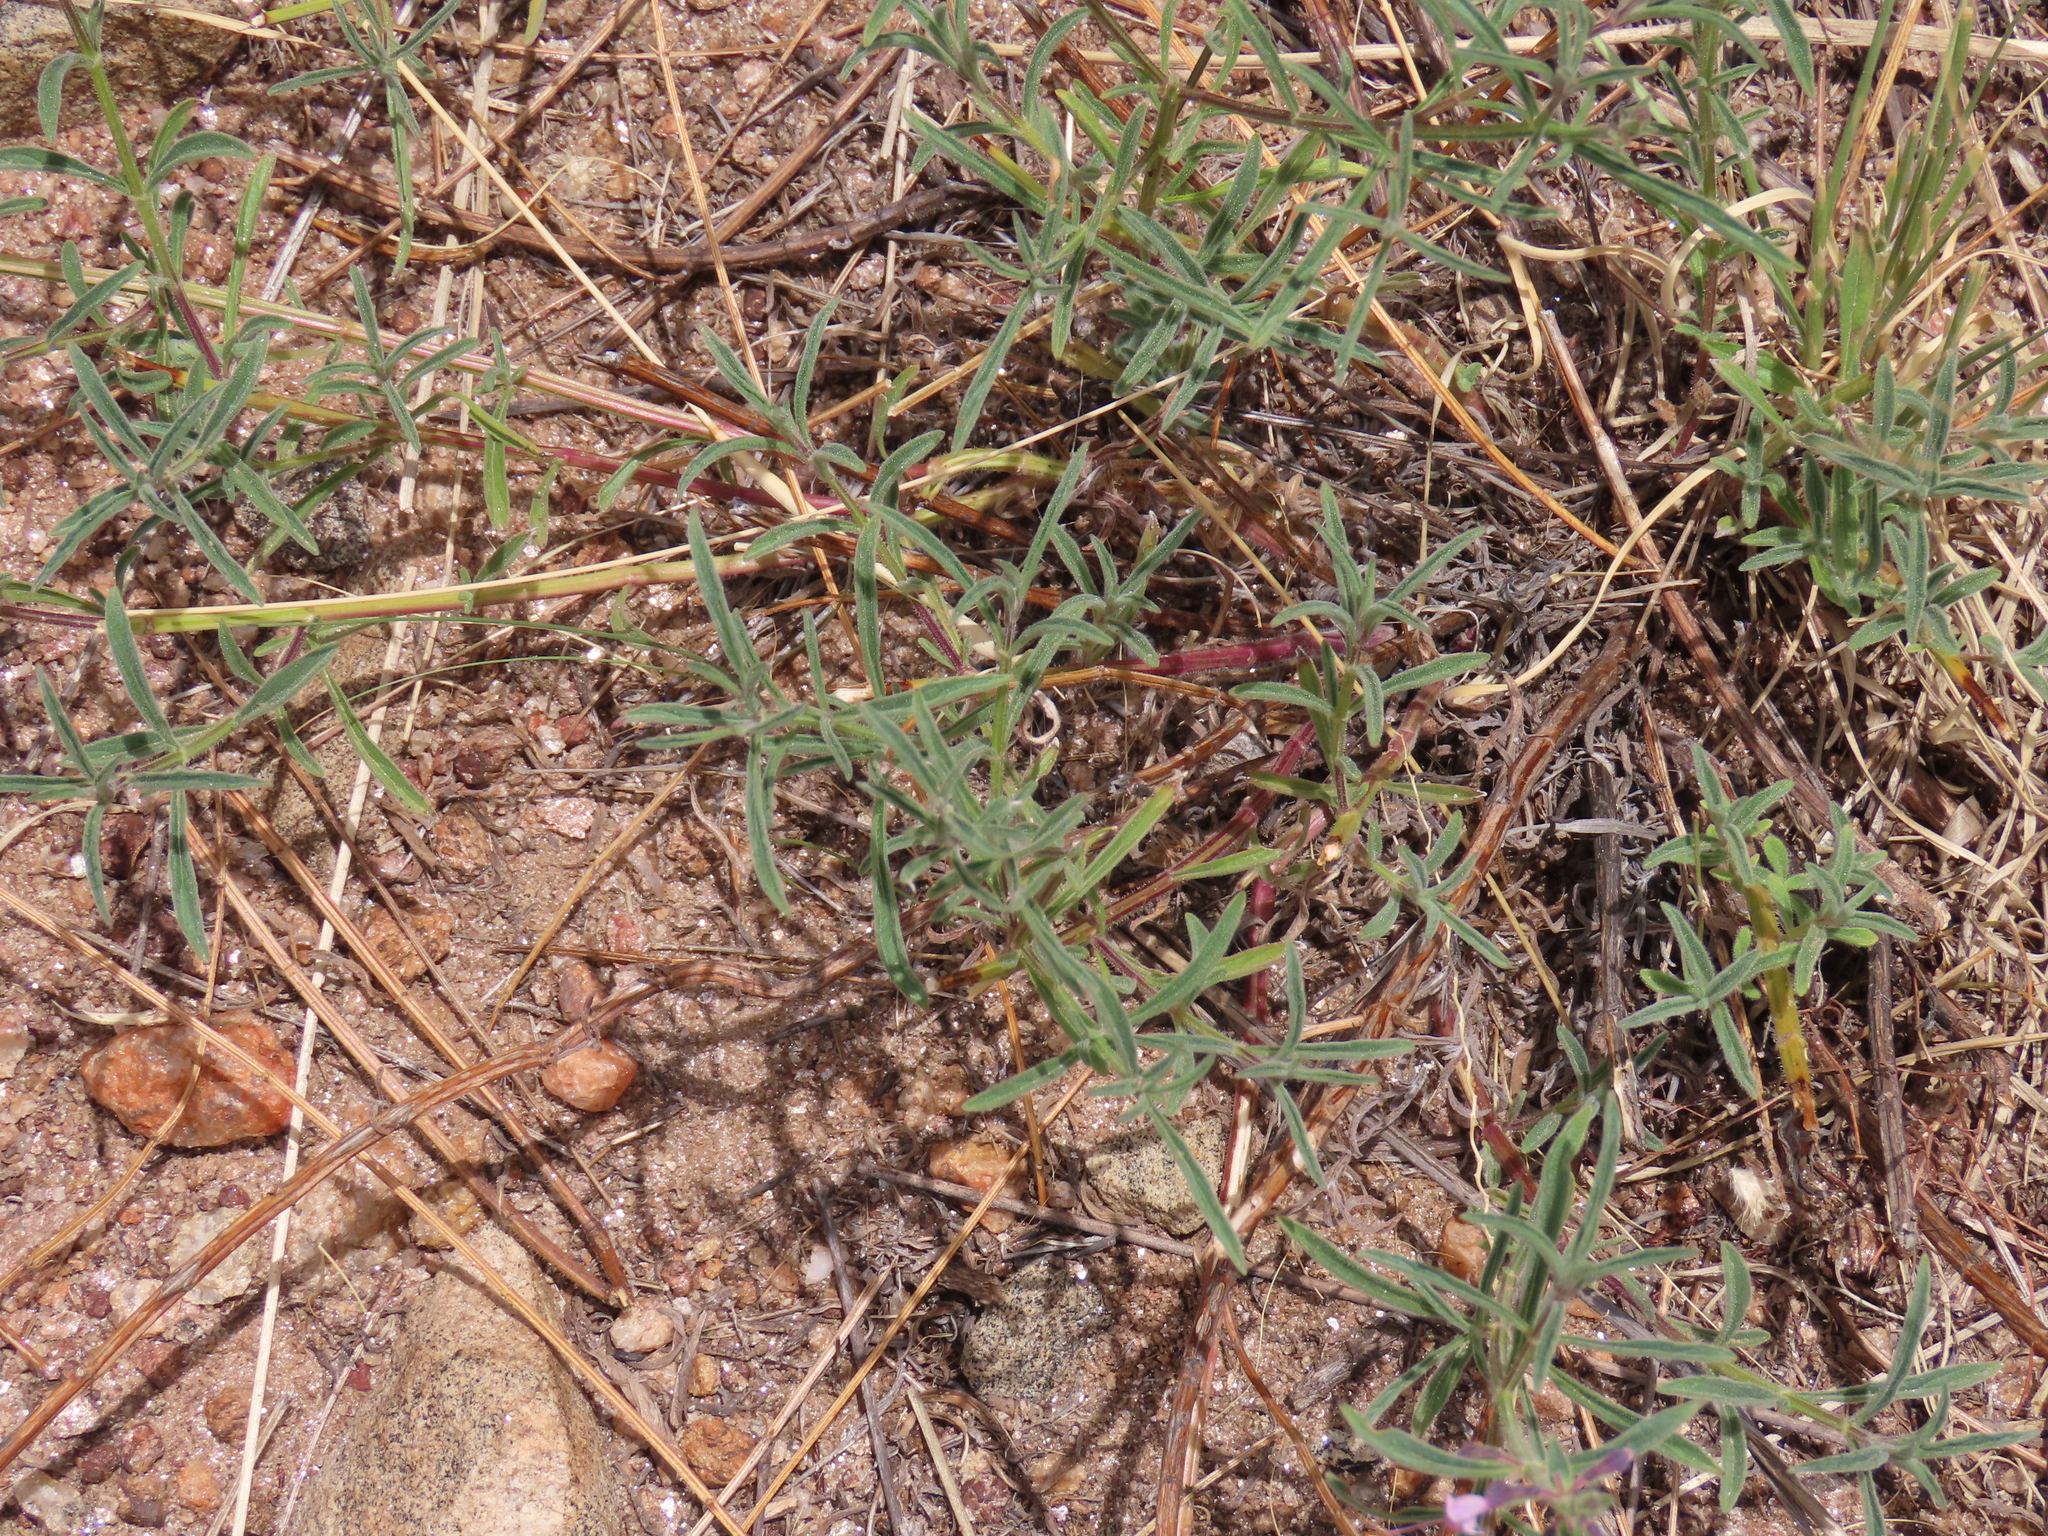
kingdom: Plantae
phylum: Tracheophyta
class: Magnoliopsida
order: Lamiales
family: Lamiaceae
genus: Ocimum
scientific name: Ocimum americanum
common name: American basil
